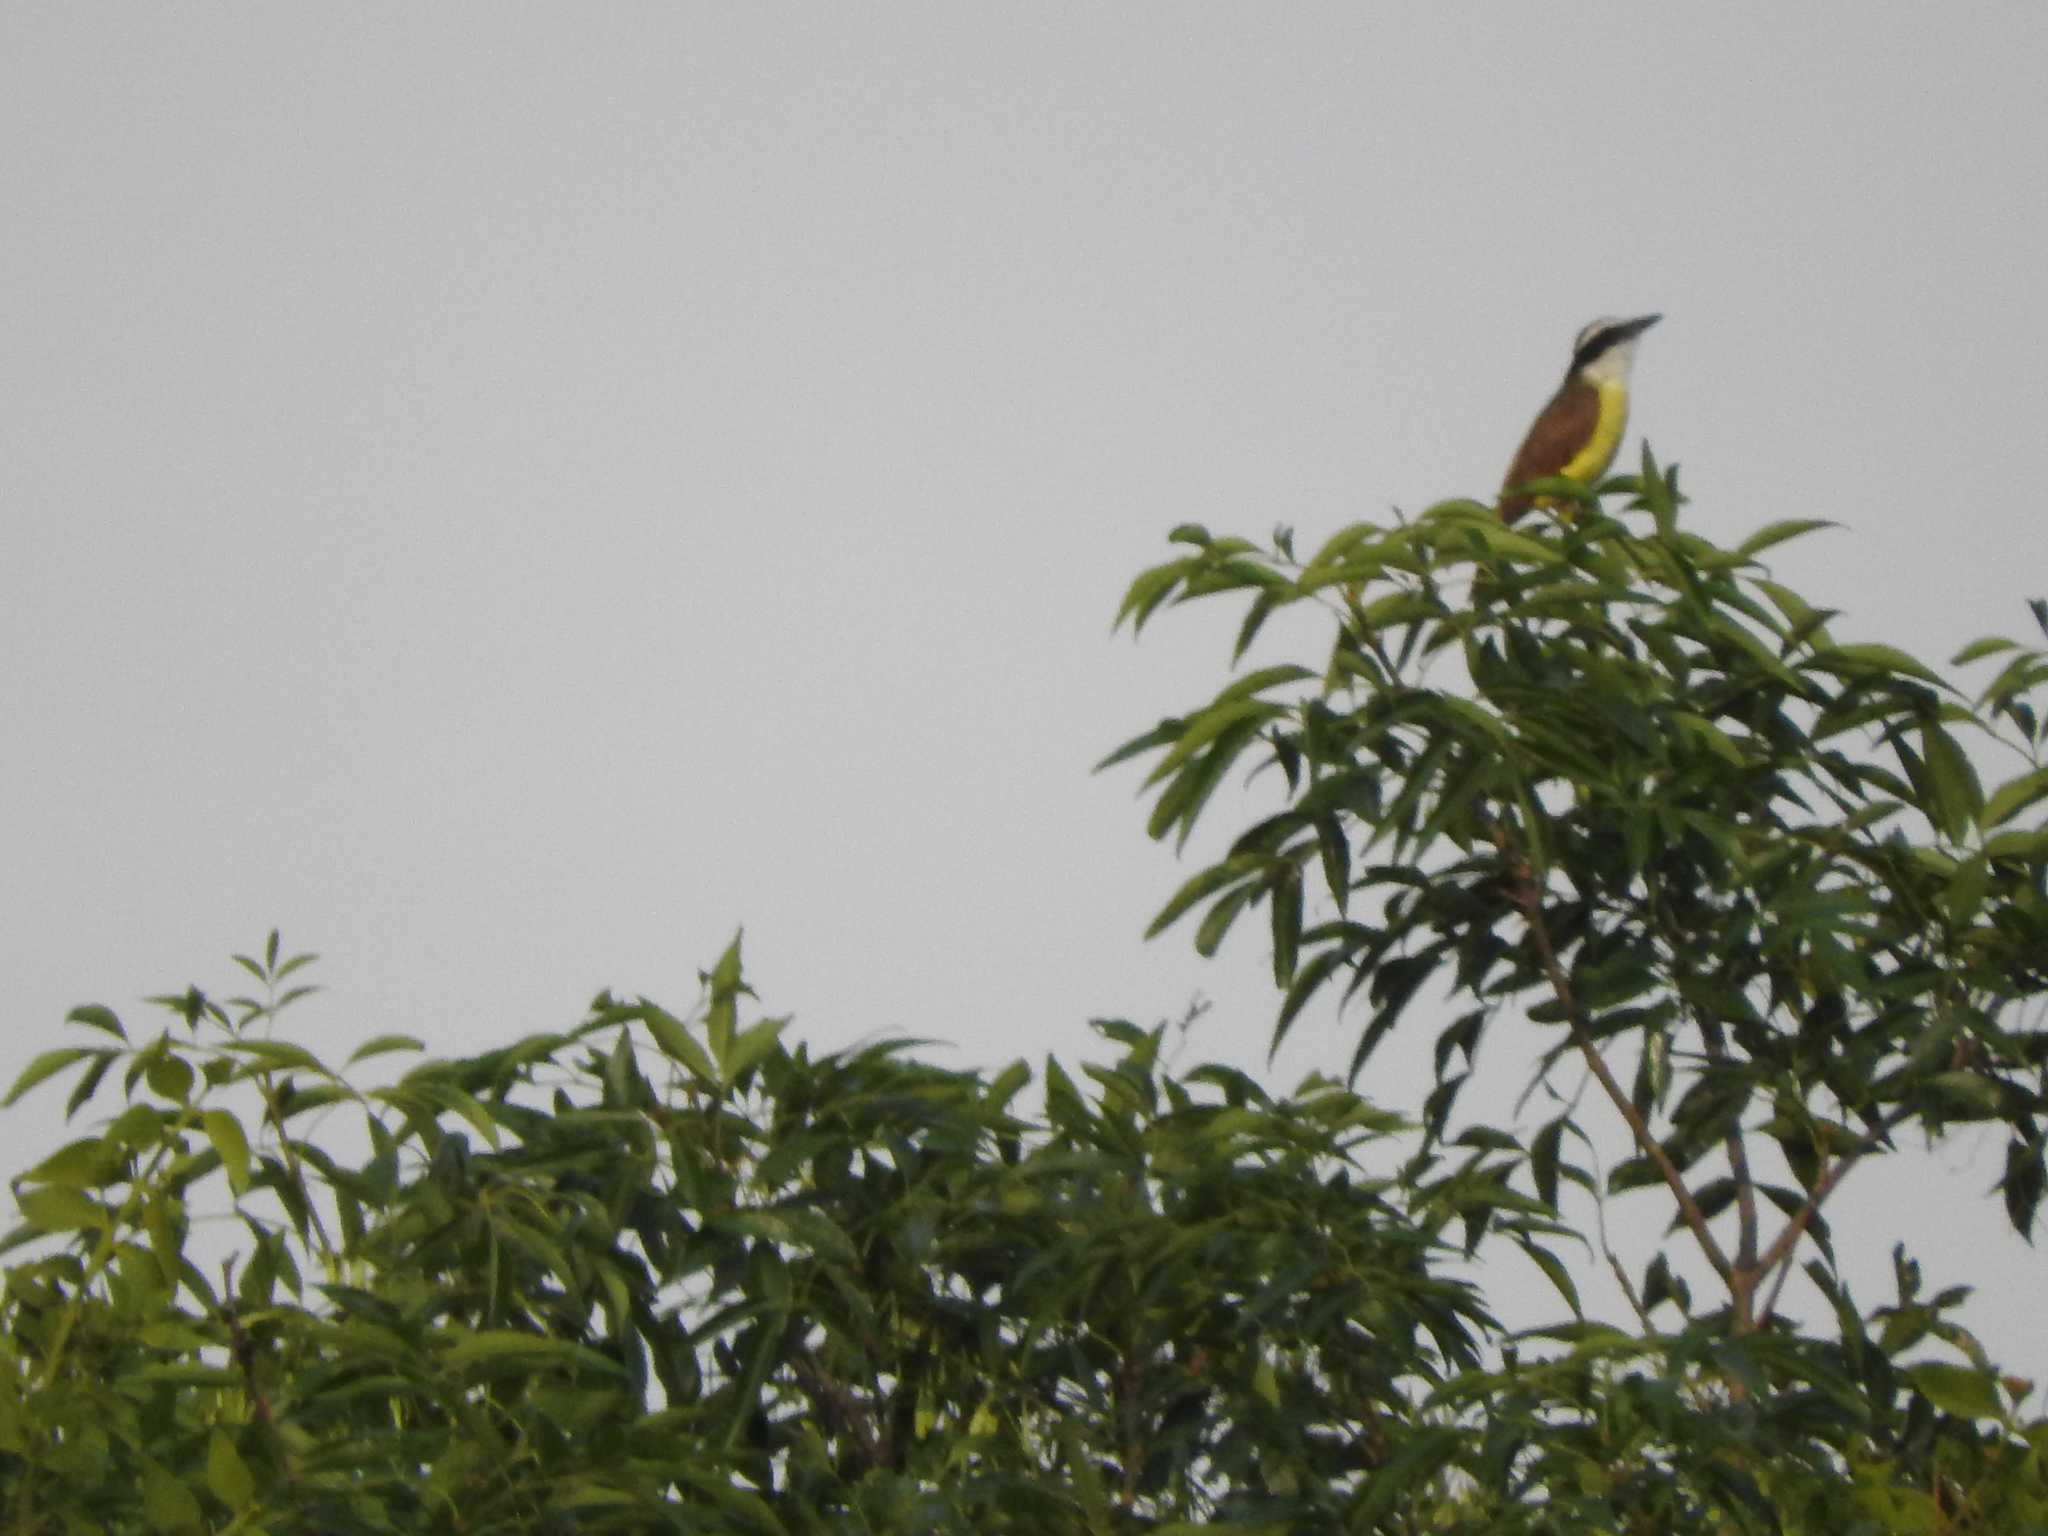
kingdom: Animalia
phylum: Chordata
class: Aves
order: Passeriformes
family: Tyrannidae
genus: Pitangus
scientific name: Pitangus sulphuratus
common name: Great kiskadee
